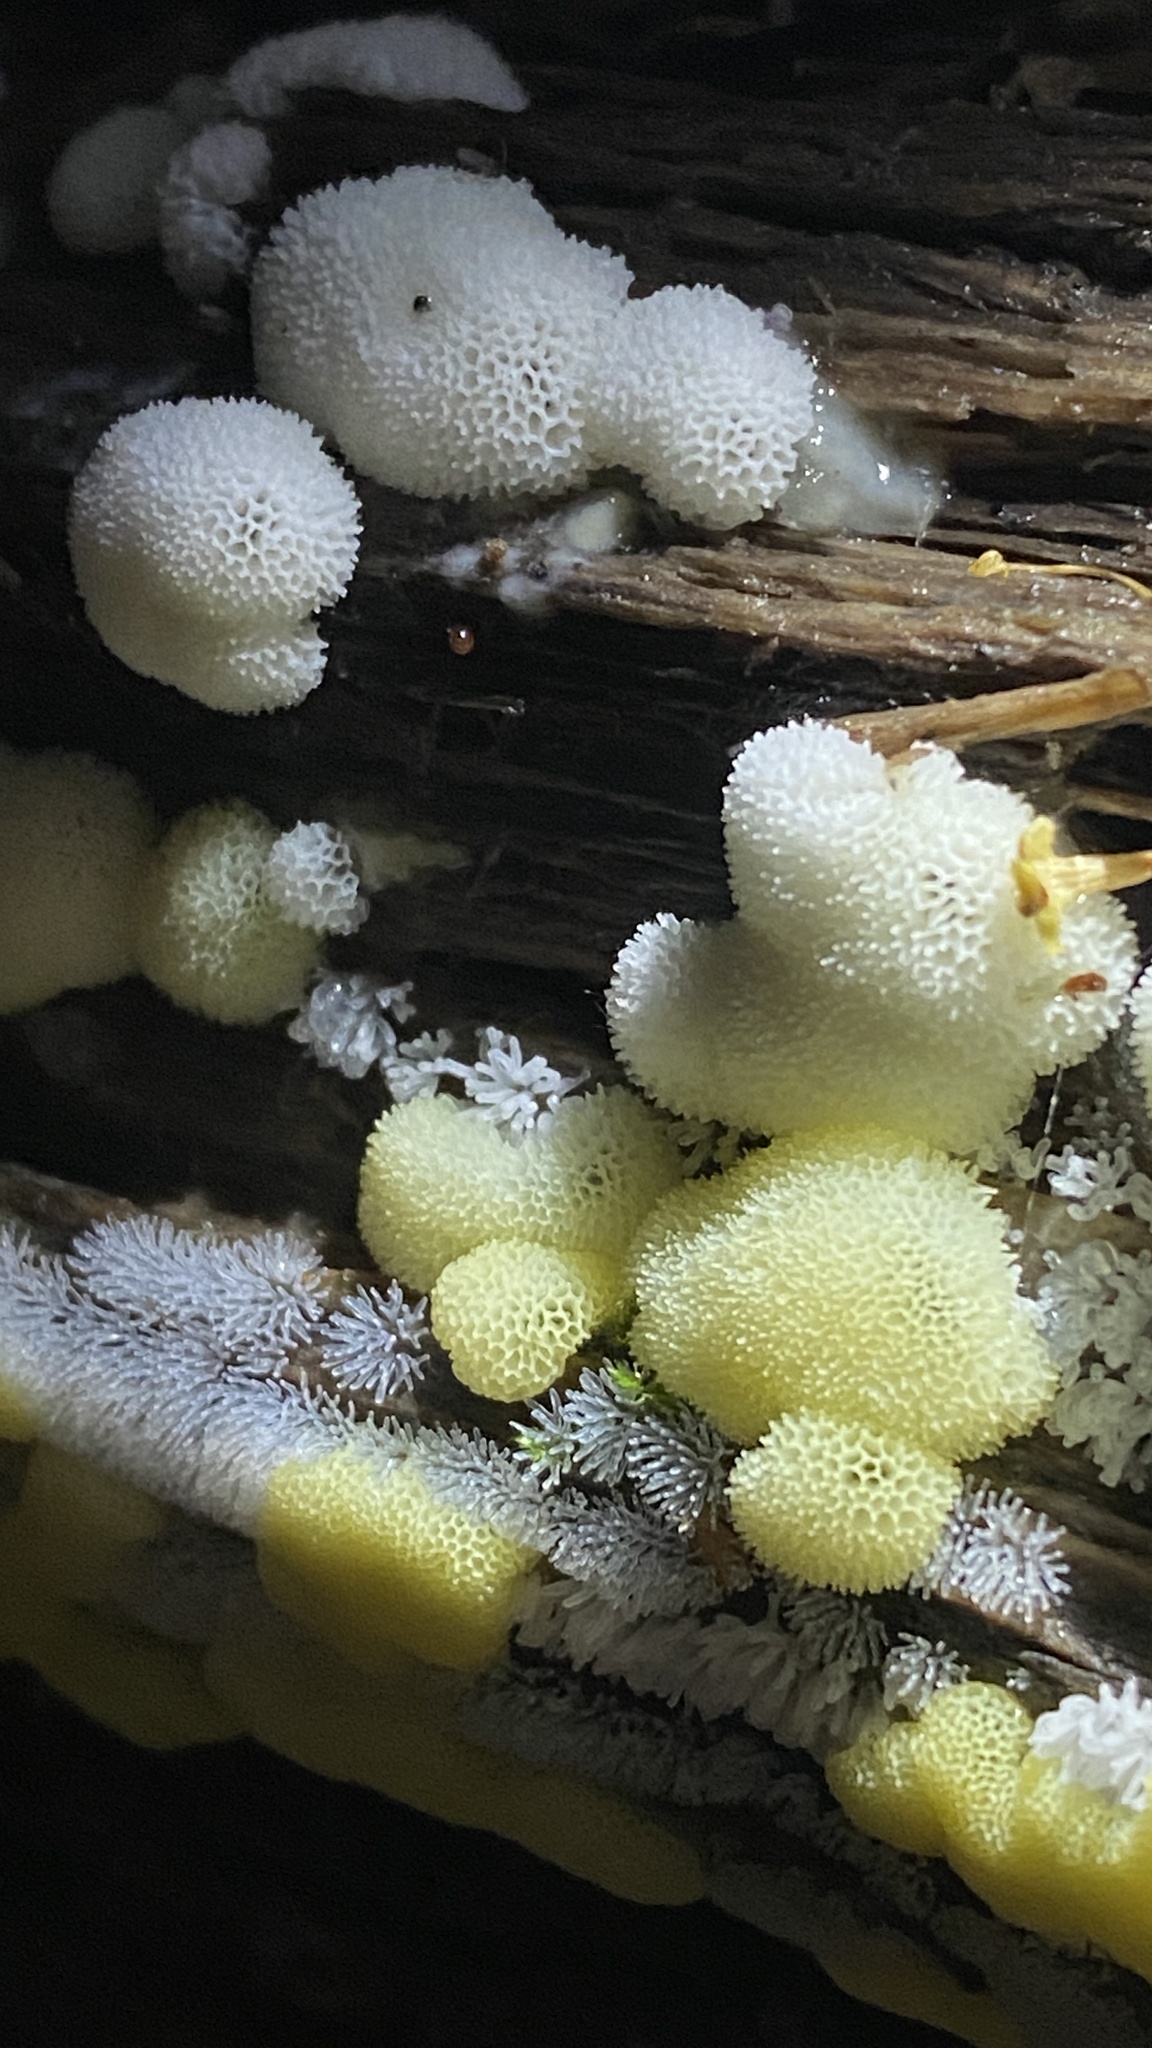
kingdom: Protozoa
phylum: Mycetozoa
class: Protosteliomycetes
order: Ceratiomyxales
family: Ceratiomyxaceae
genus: Ceratiomyxa
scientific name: Ceratiomyxa fruticulosa
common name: Honeycomb coral slime mold
